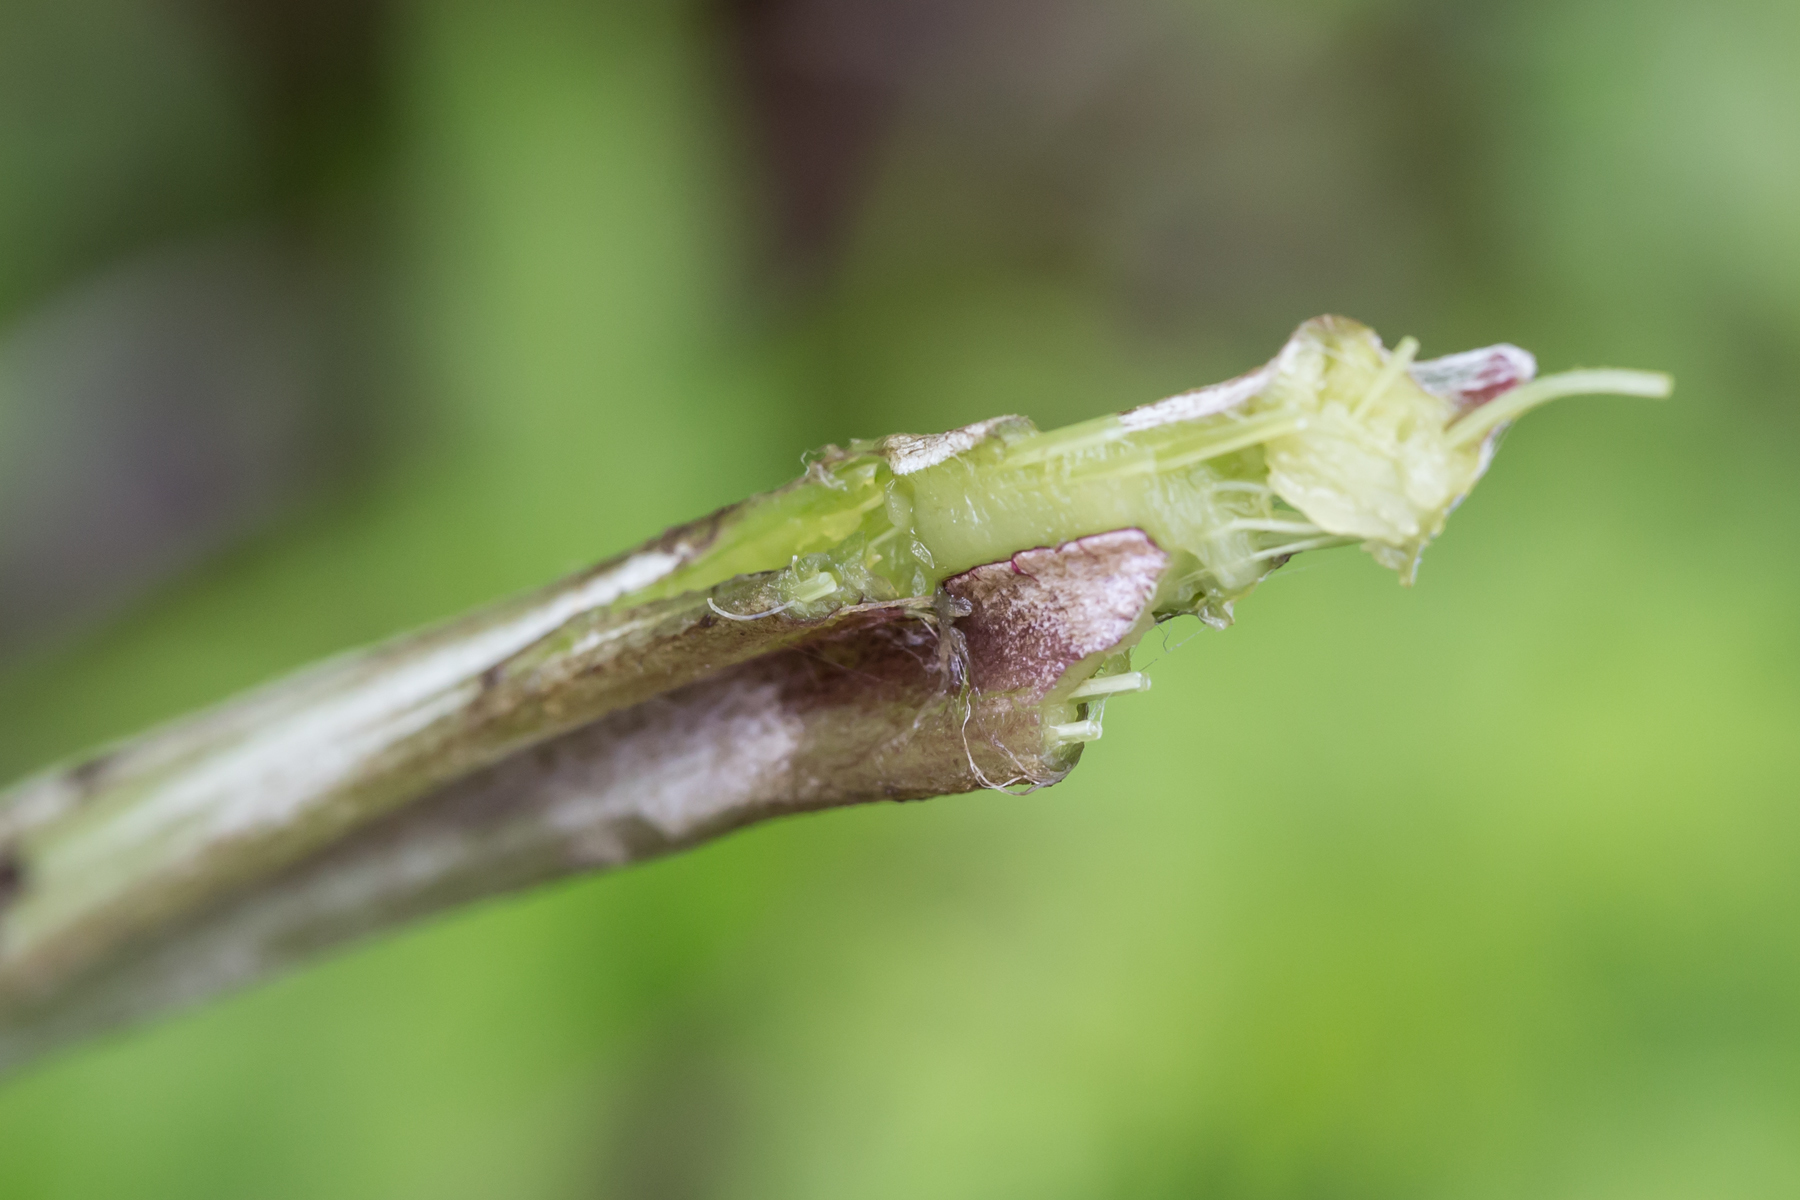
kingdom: Plantae
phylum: Tracheophyta
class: Magnoliopsida
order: Asterales
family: Asteraceae
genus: Arctium
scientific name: Arctium
